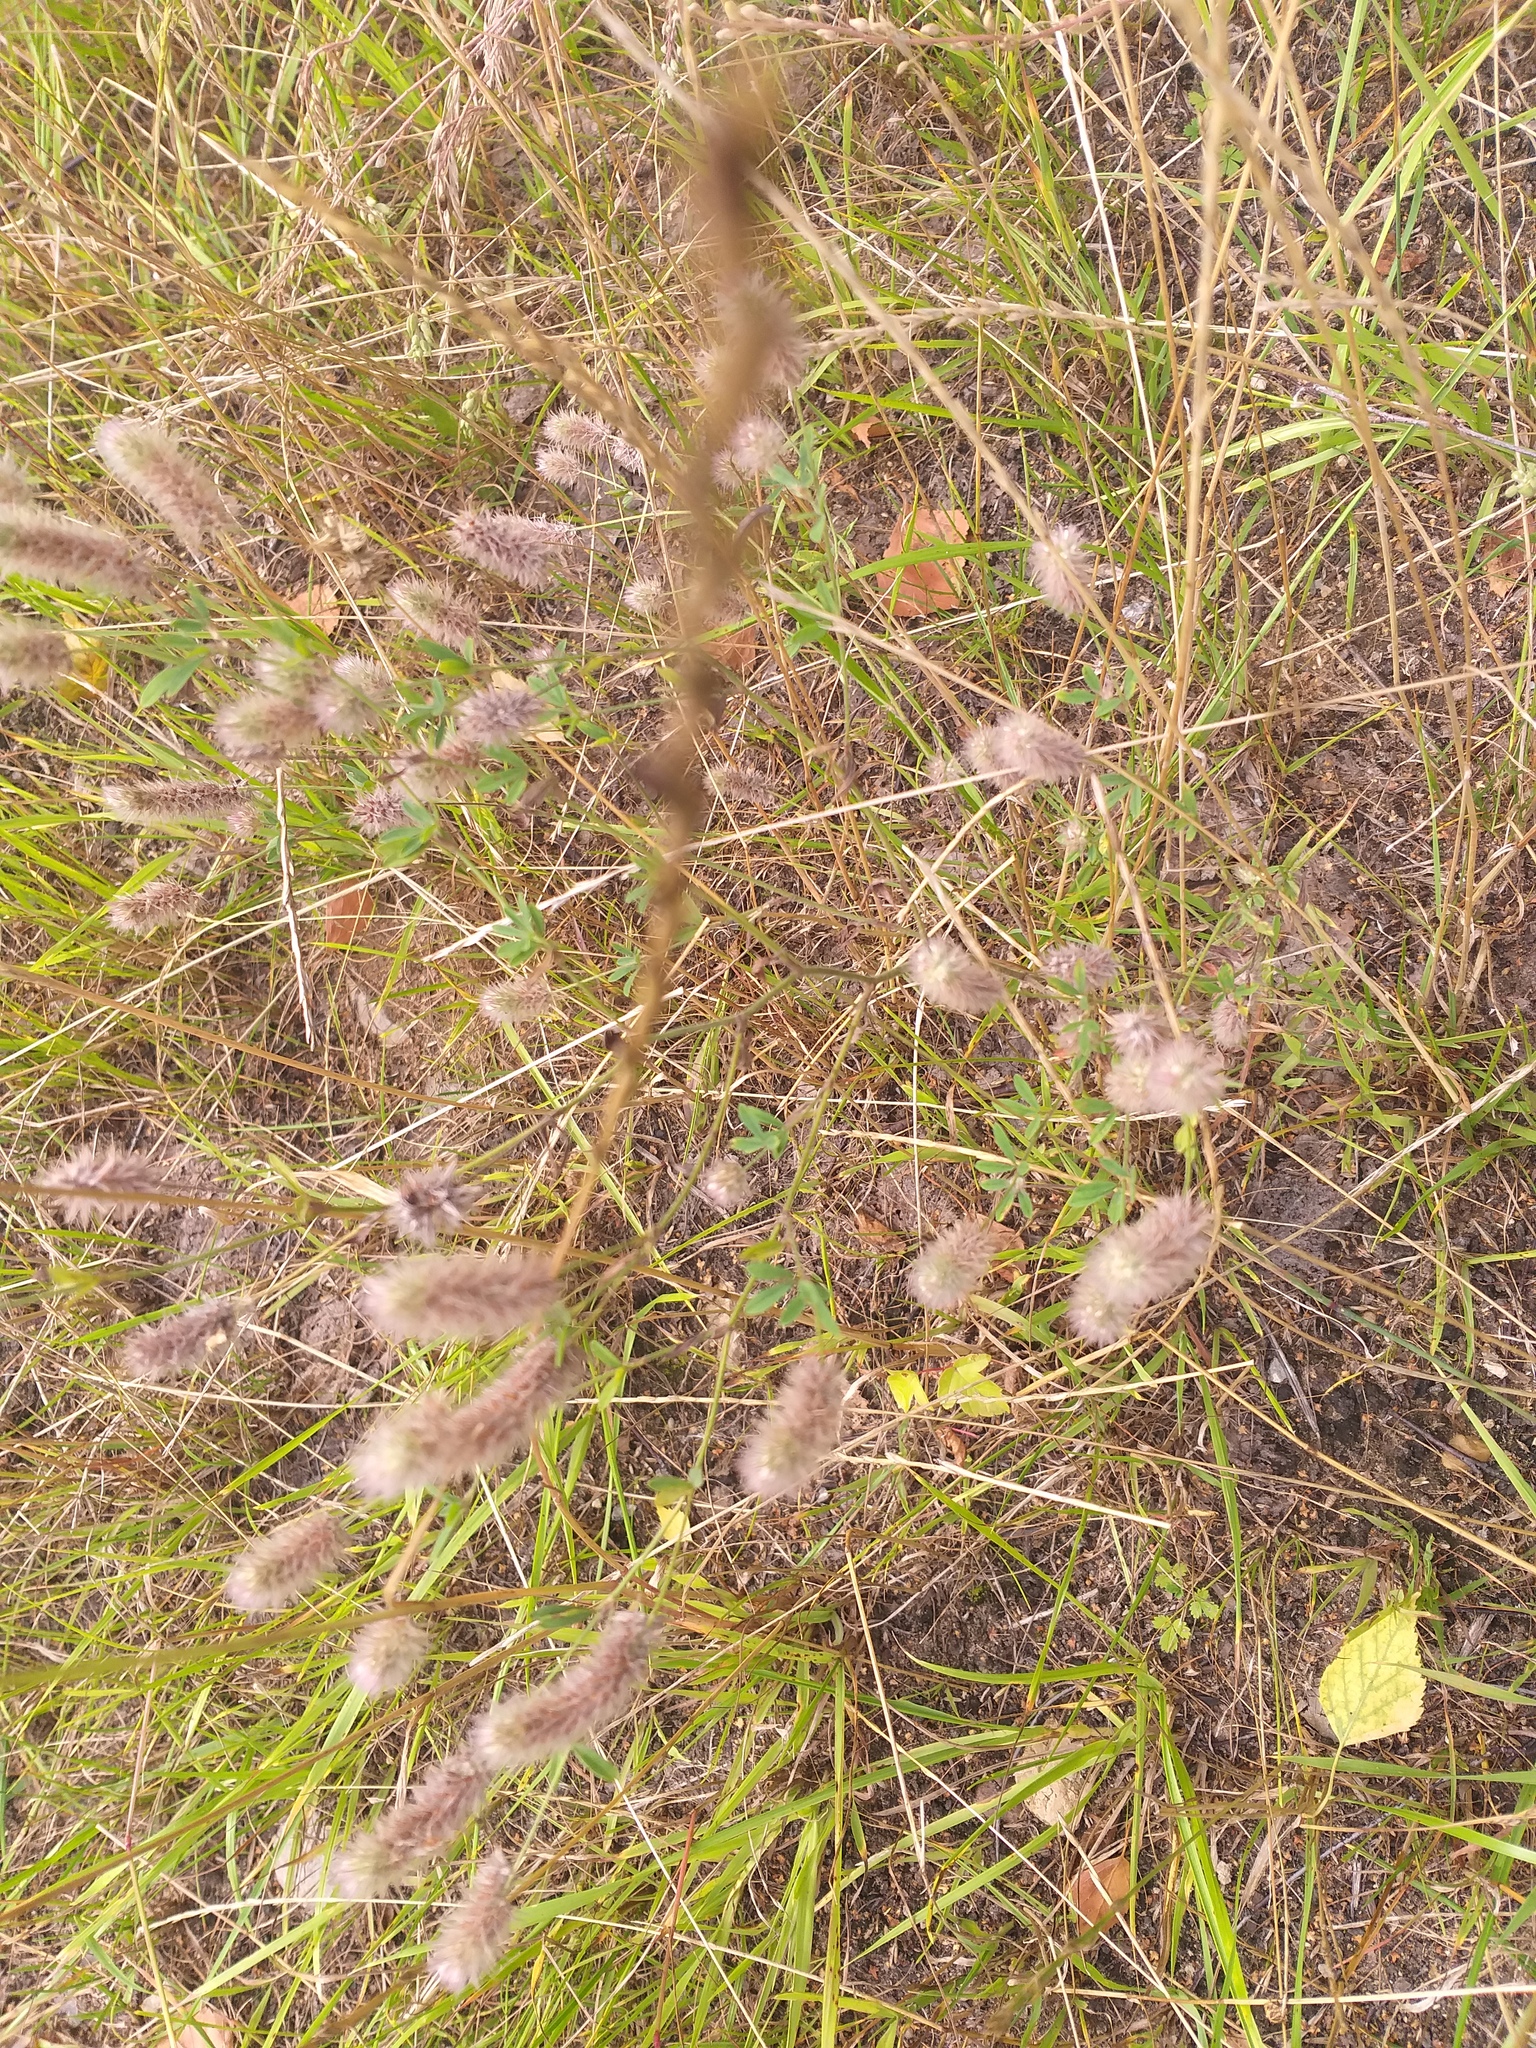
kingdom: Plantae
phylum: Tracheophyta
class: Magnoliopsida
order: Fabales
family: Fabaceae
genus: Trifolium
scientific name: Trifolium arvense
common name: Hare's-foot clover
